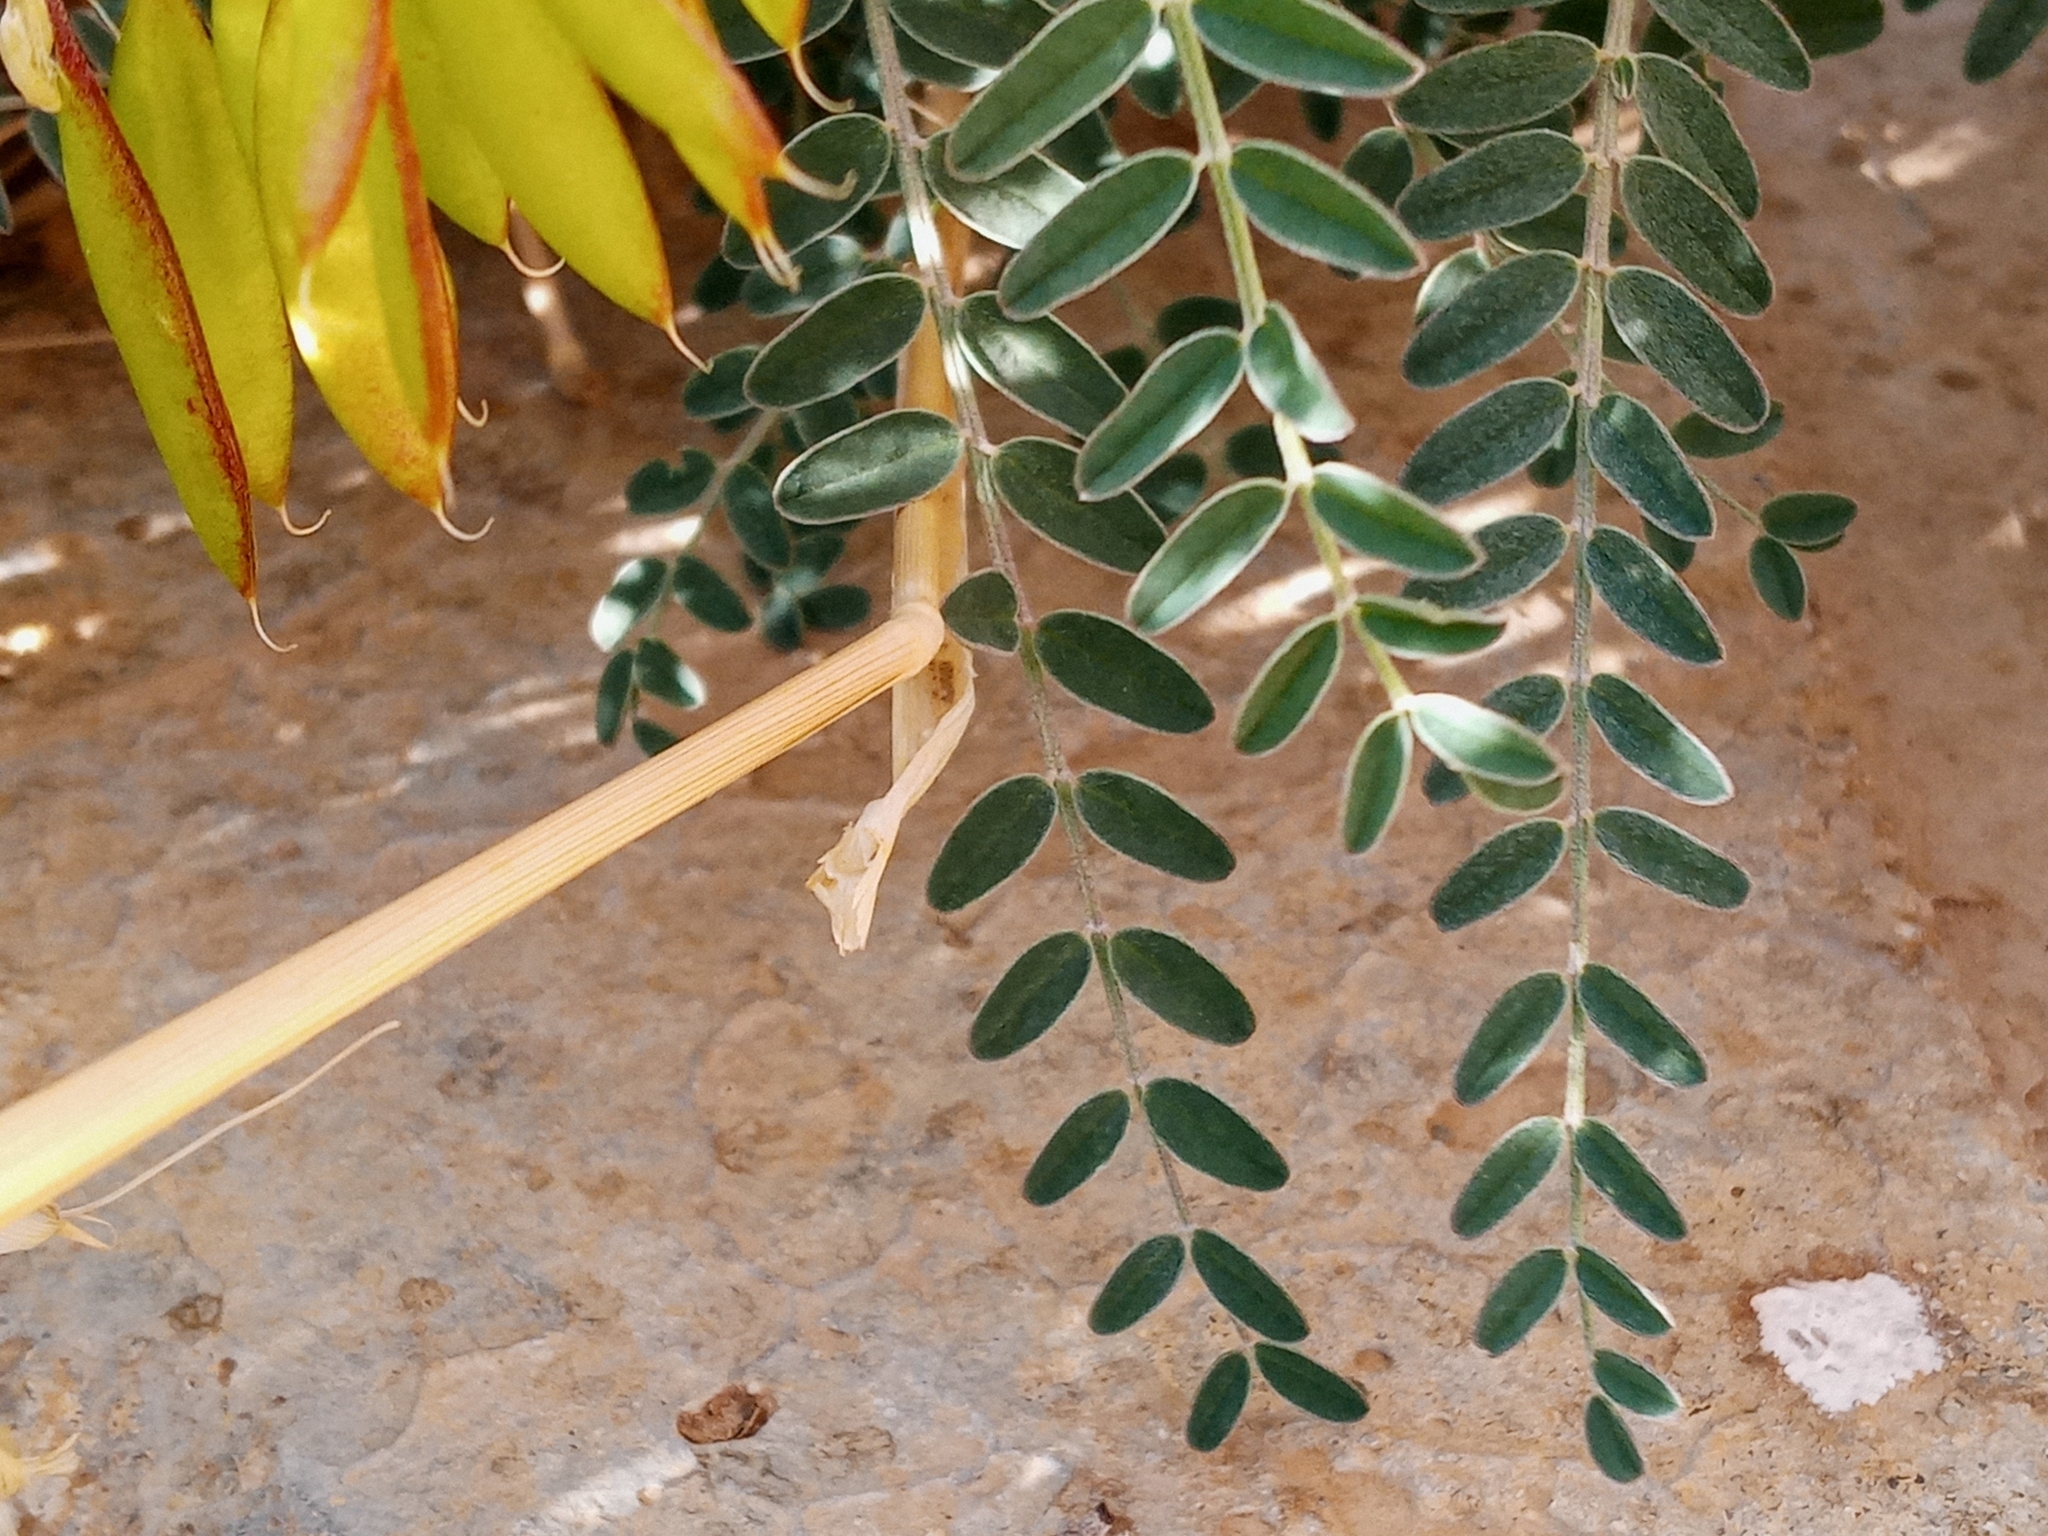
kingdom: Plantae
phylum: Tracheophyta
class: Magnoliopsida
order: Fabales
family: Fabaceae
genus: Astragalus
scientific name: Astragalus trichopodus
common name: Santa barbara milk-vetch
